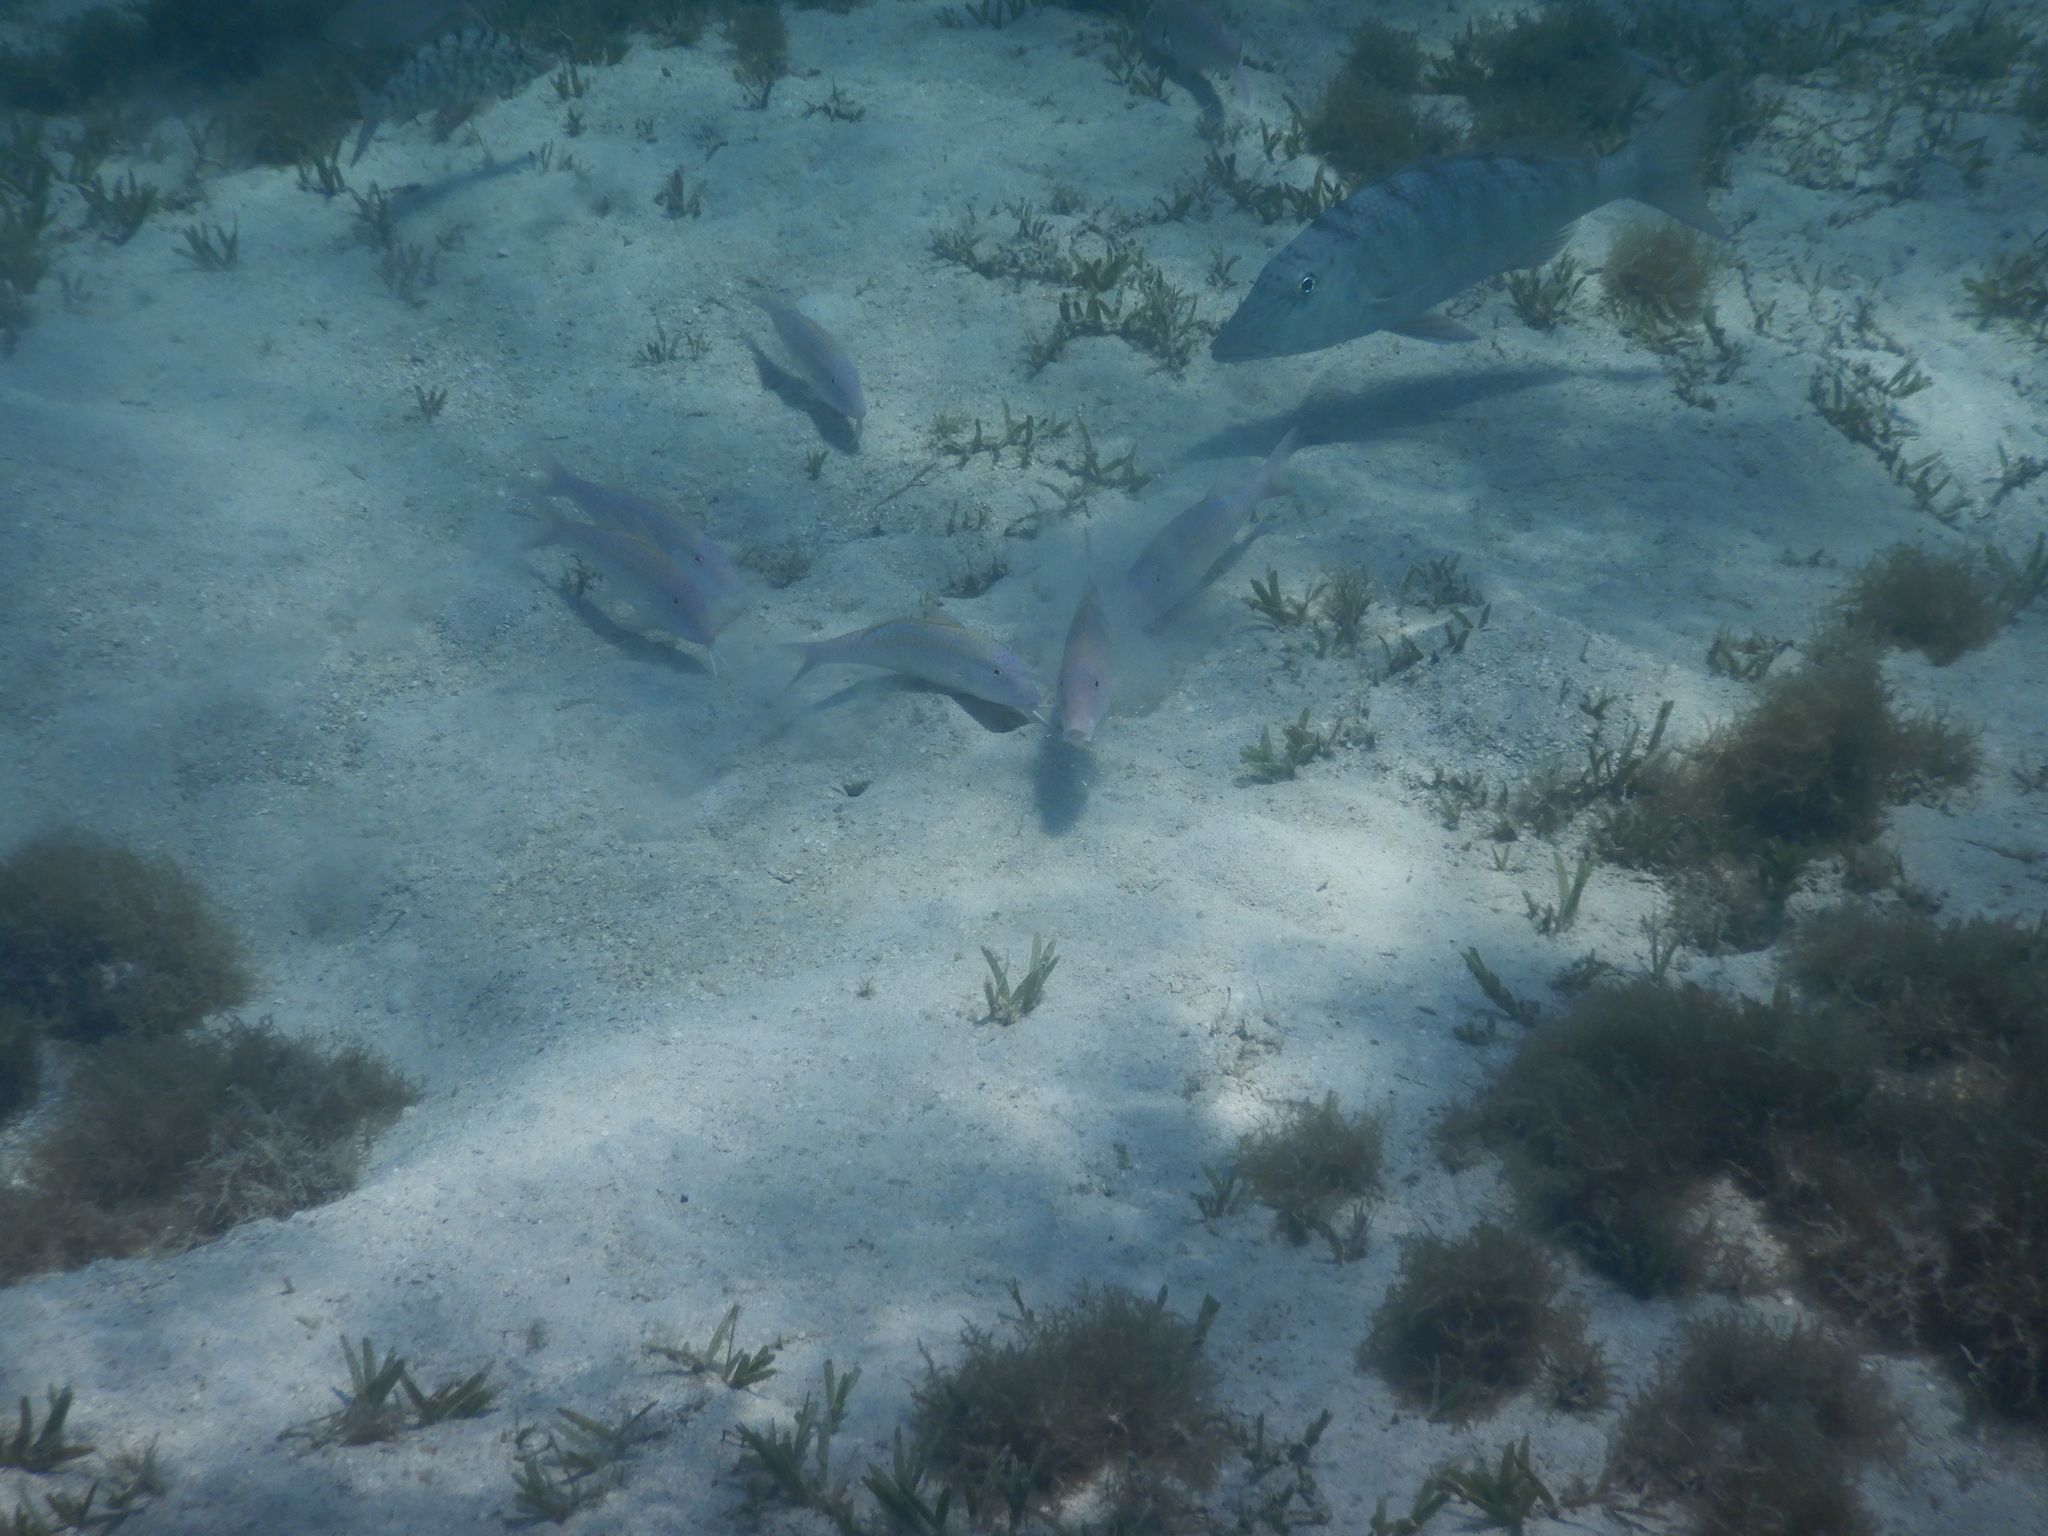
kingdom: Animalia
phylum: Chordata
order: Perciformes
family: Mullidae
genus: Parupeneus
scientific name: Parupeneus heptacanthus
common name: Cinnabar goatfish
